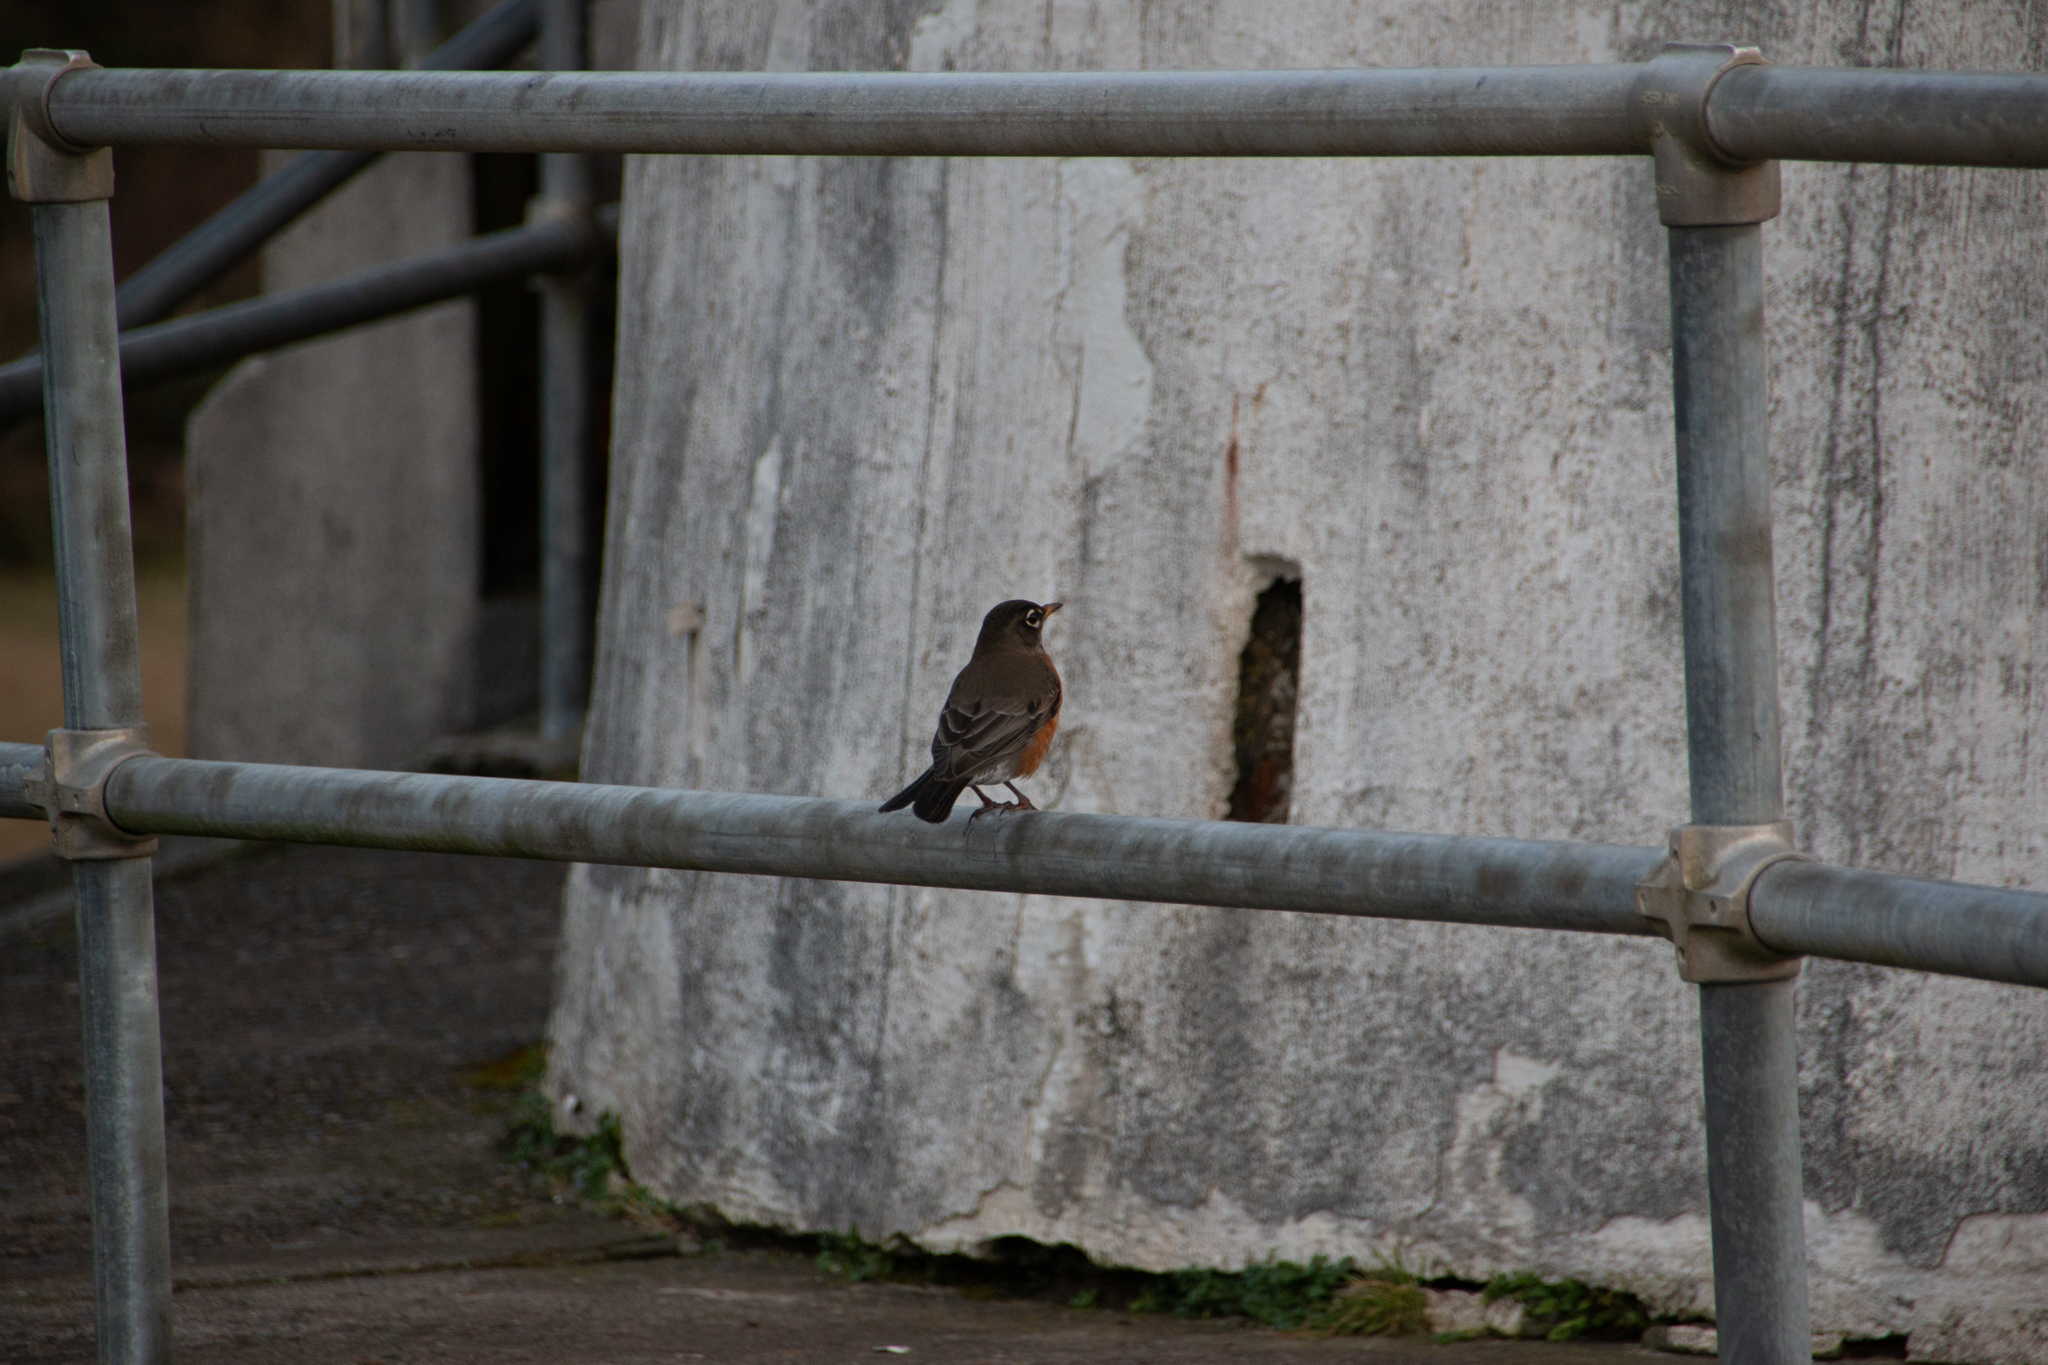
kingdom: Animalia
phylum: Chordata
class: Aves
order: Passeriformes
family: Turdidae
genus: Turdus
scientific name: Turdus migratorius
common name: American robin
